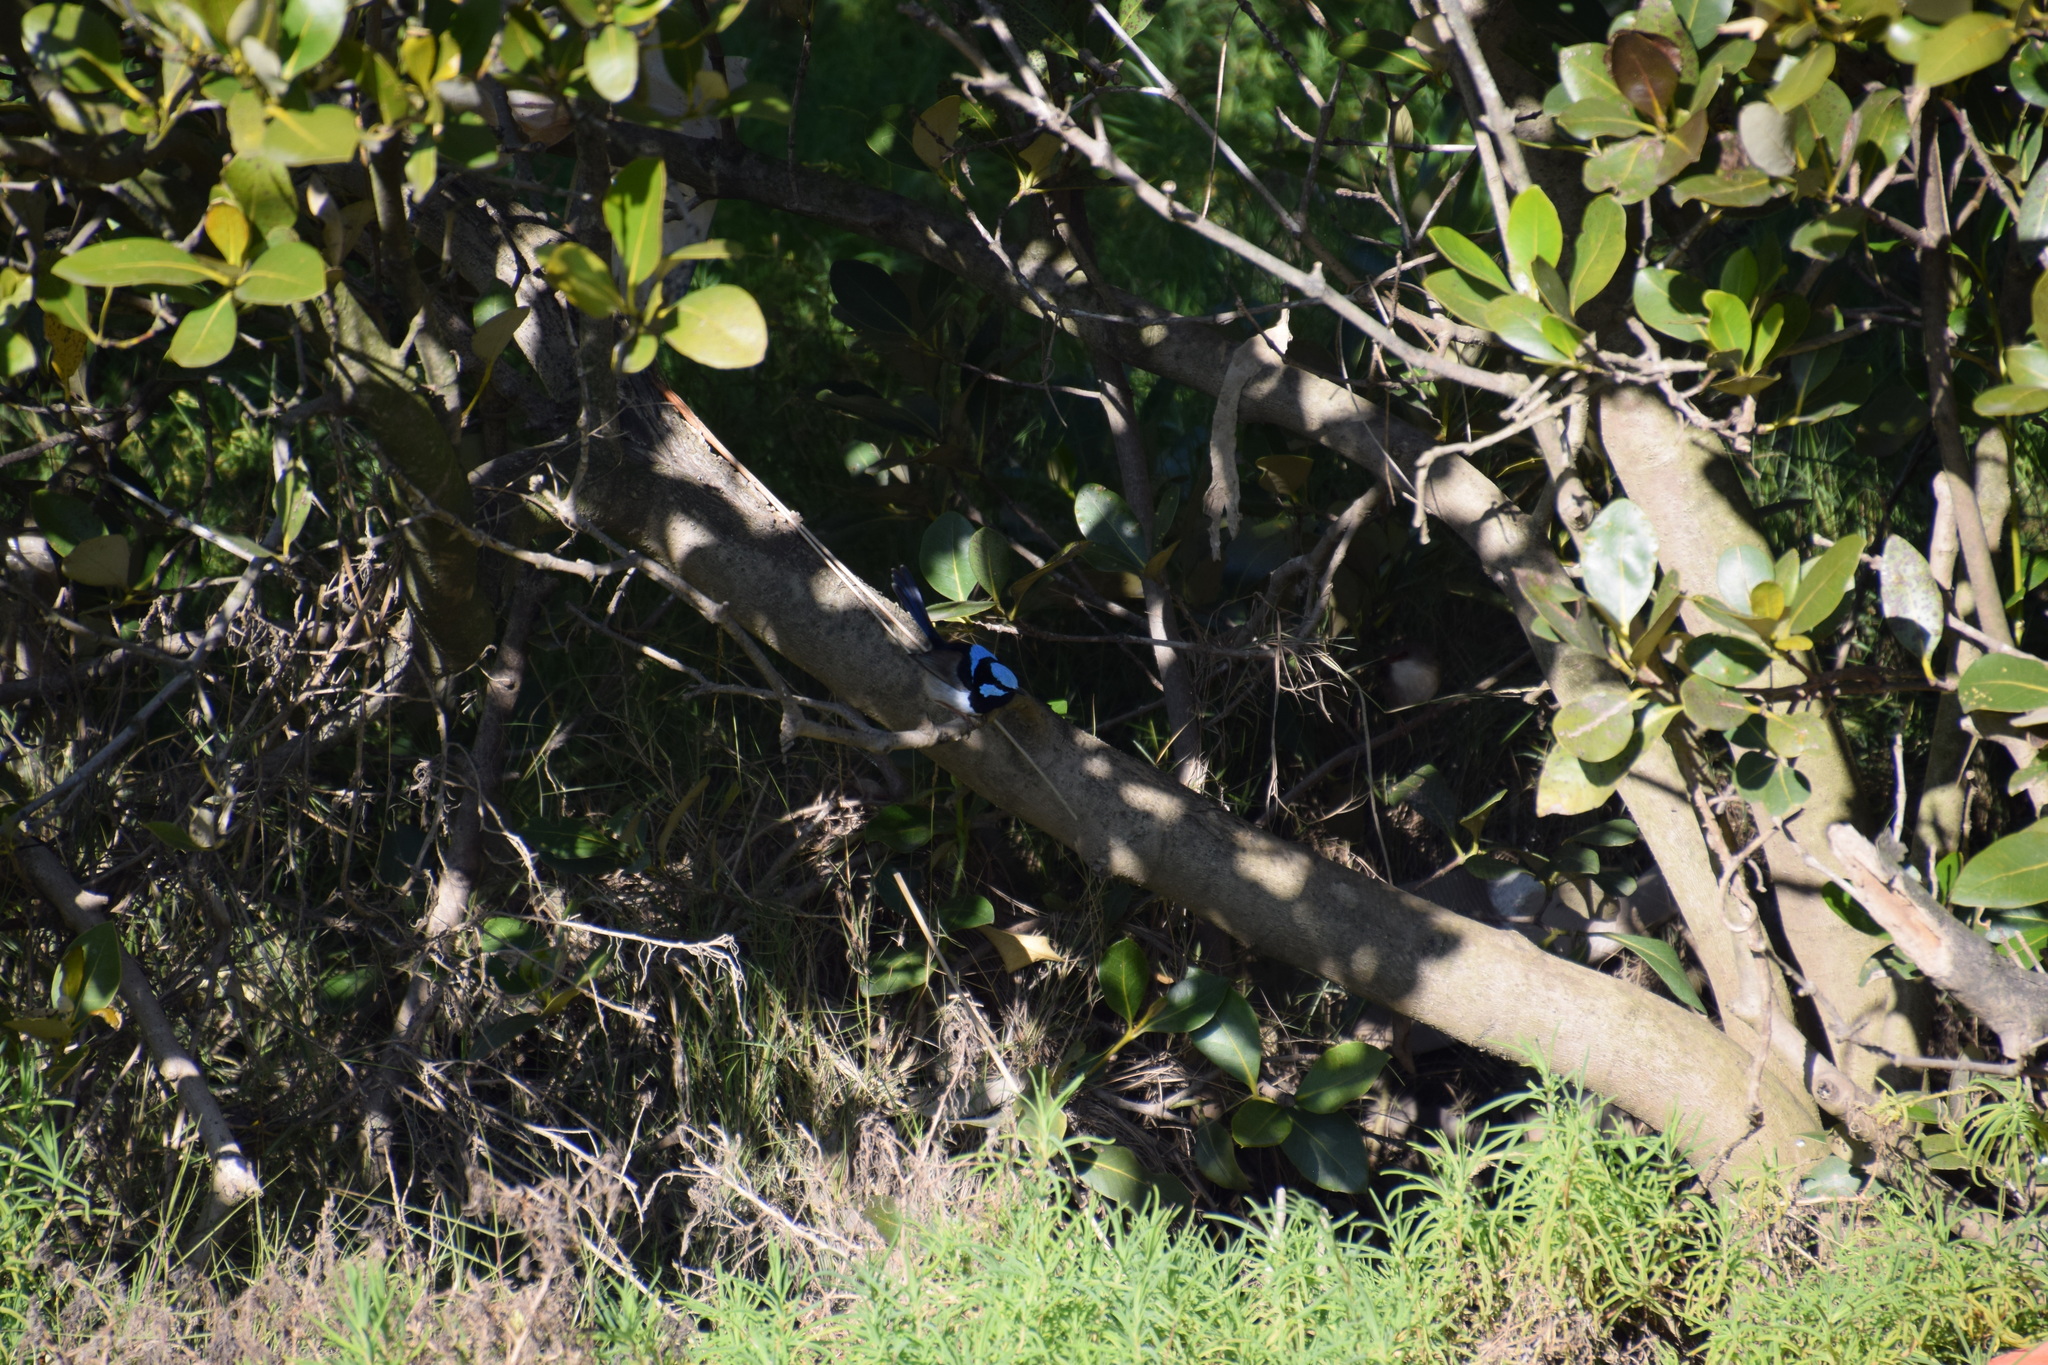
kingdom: Animalia
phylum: Chordata
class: Aves
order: Passeriformes
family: Maluridae
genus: Malurus
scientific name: Malurus cyaneus
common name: Superb fairywren
